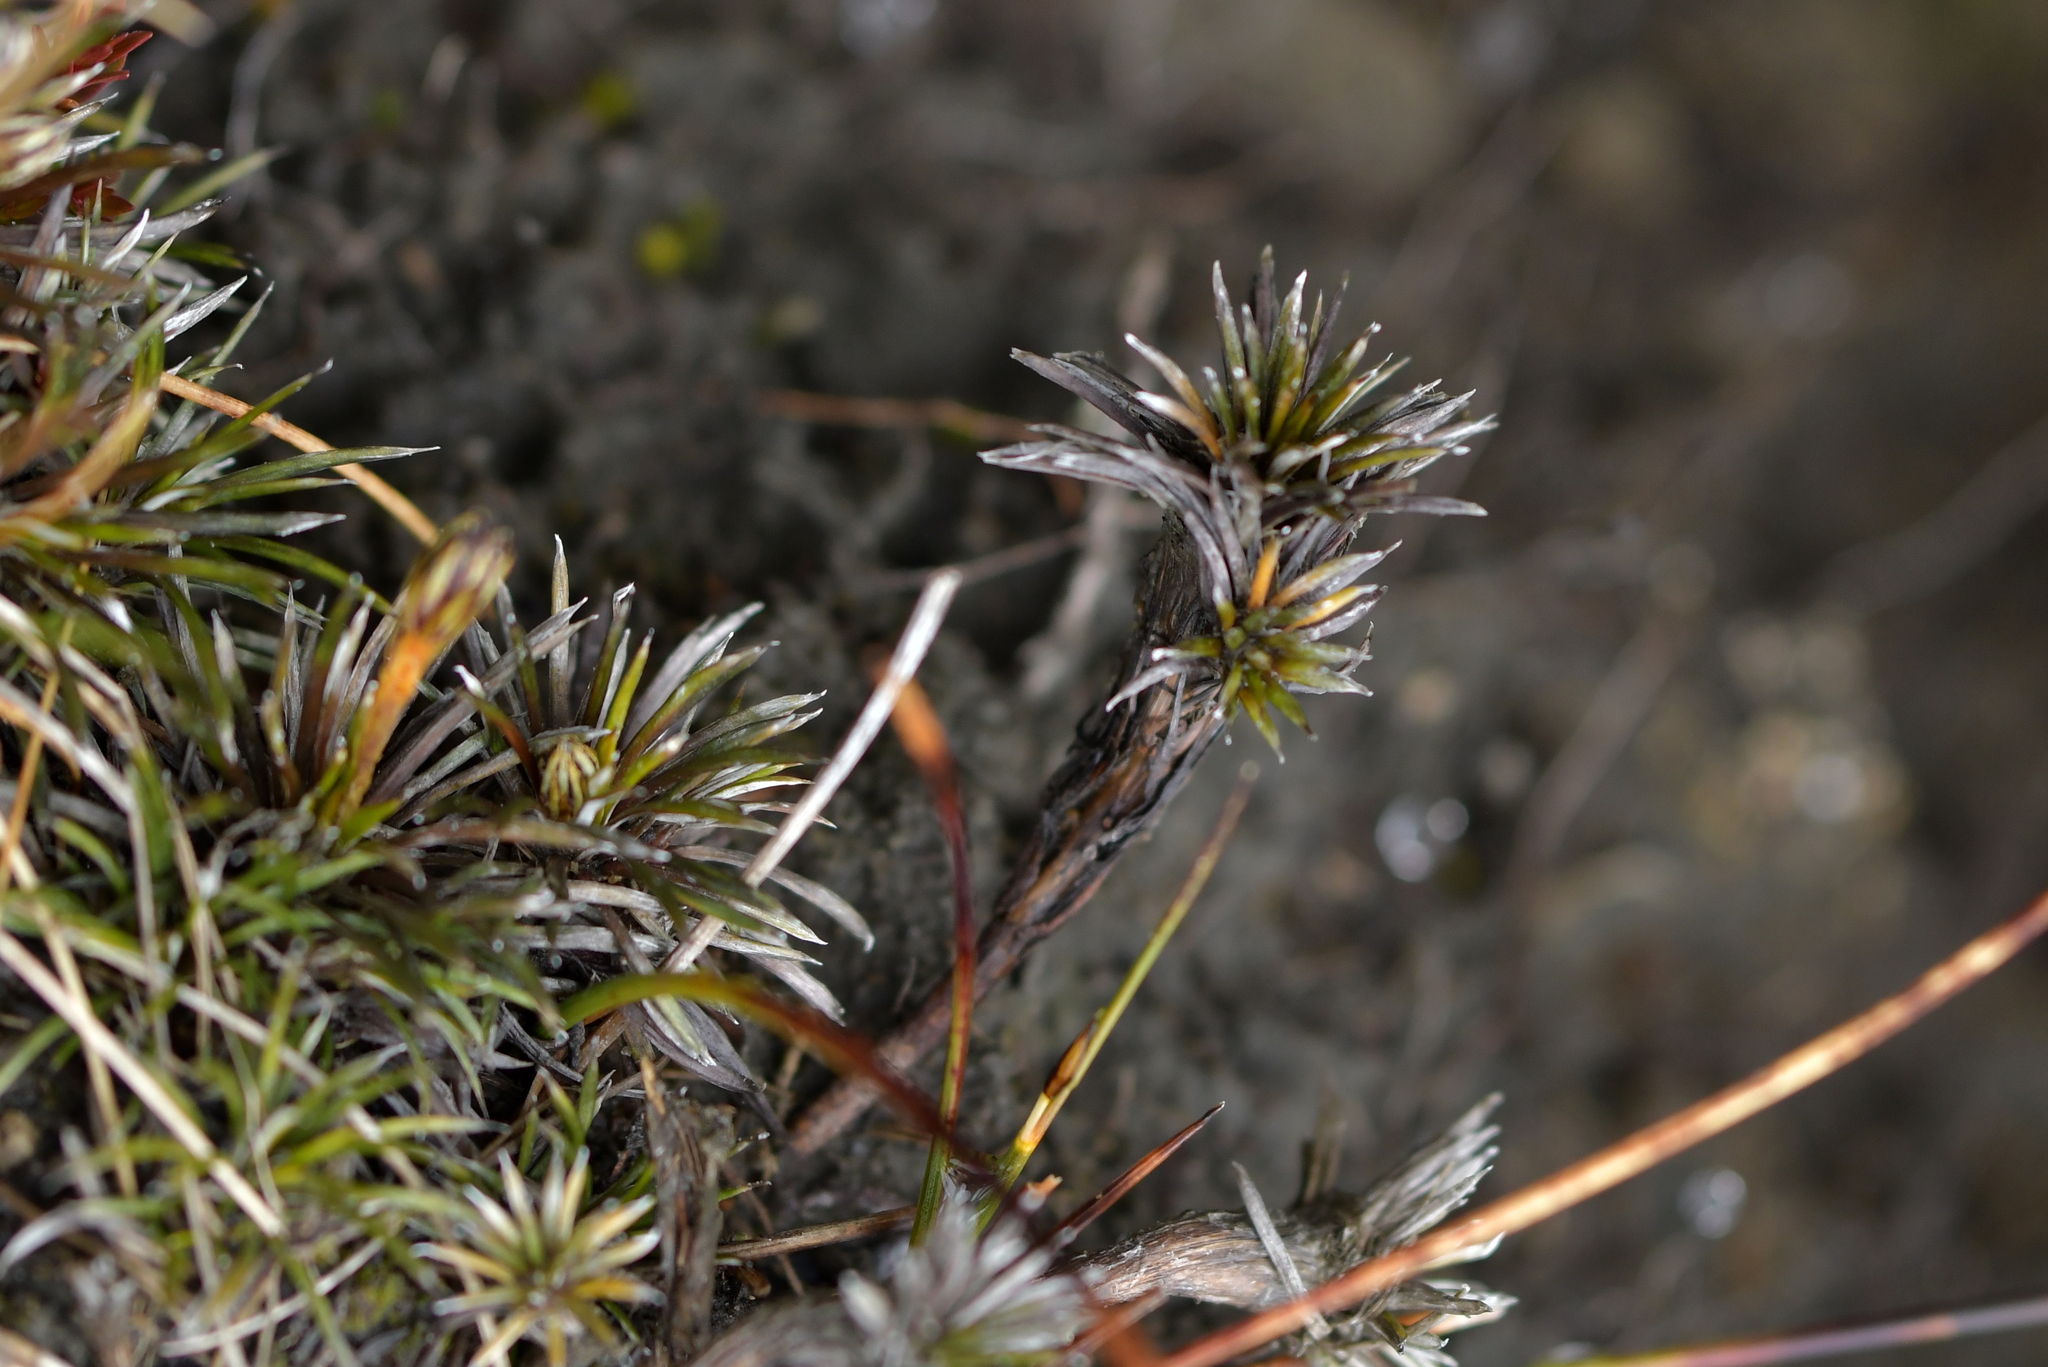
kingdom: Plantae
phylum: Tracheophyta
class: Magnoliopsida
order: Asterales
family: Asteraceae
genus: Celmisia
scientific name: Celmisia laricifolia
